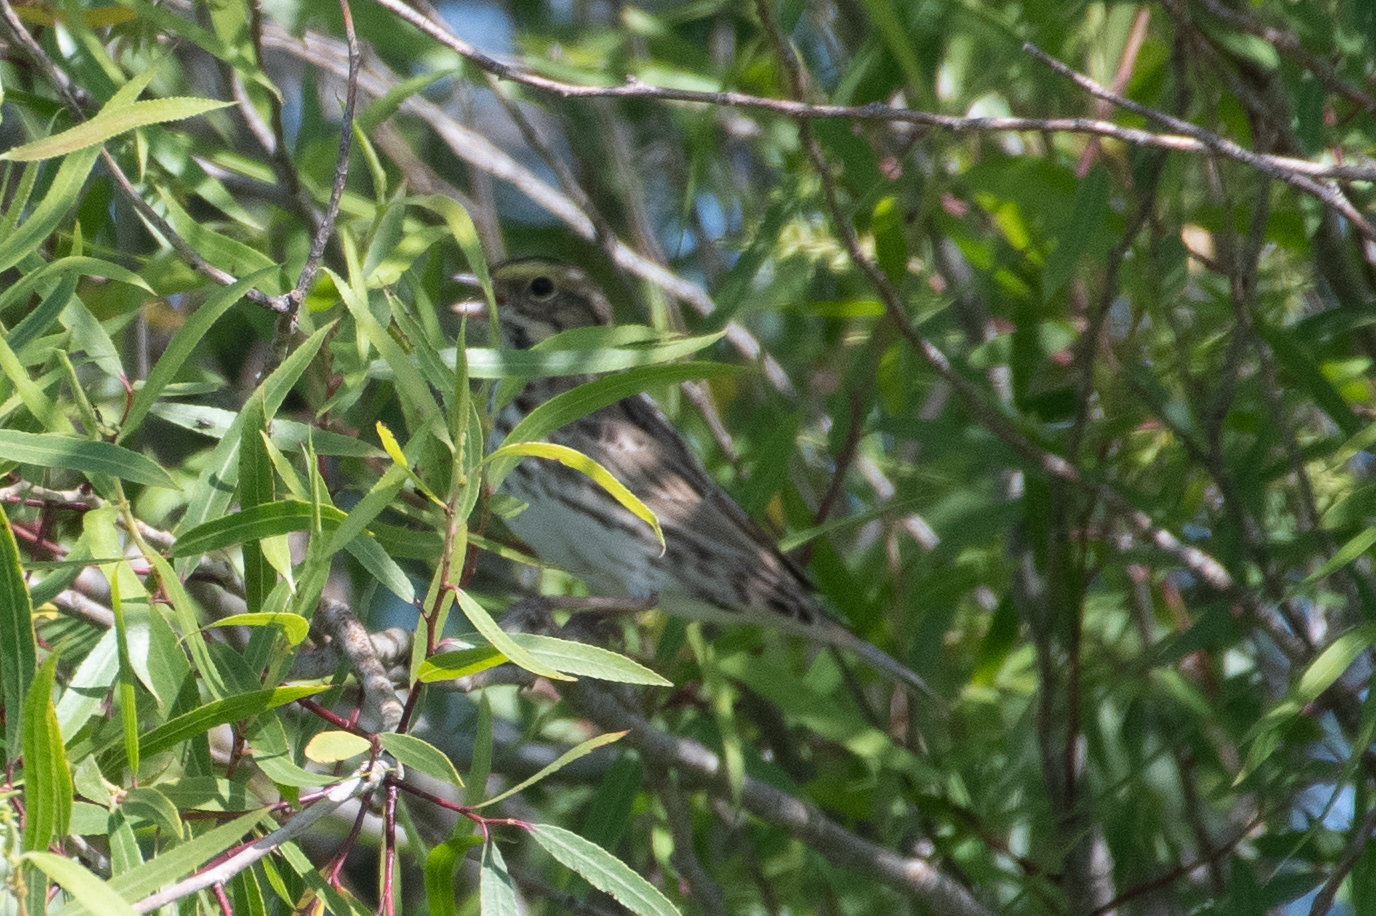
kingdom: Animalia
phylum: Chordata
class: Aves
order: Passeriformes
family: Passerellidae
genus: Passerculus
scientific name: Passerculus sandwichensis
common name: Savannah sparrow
